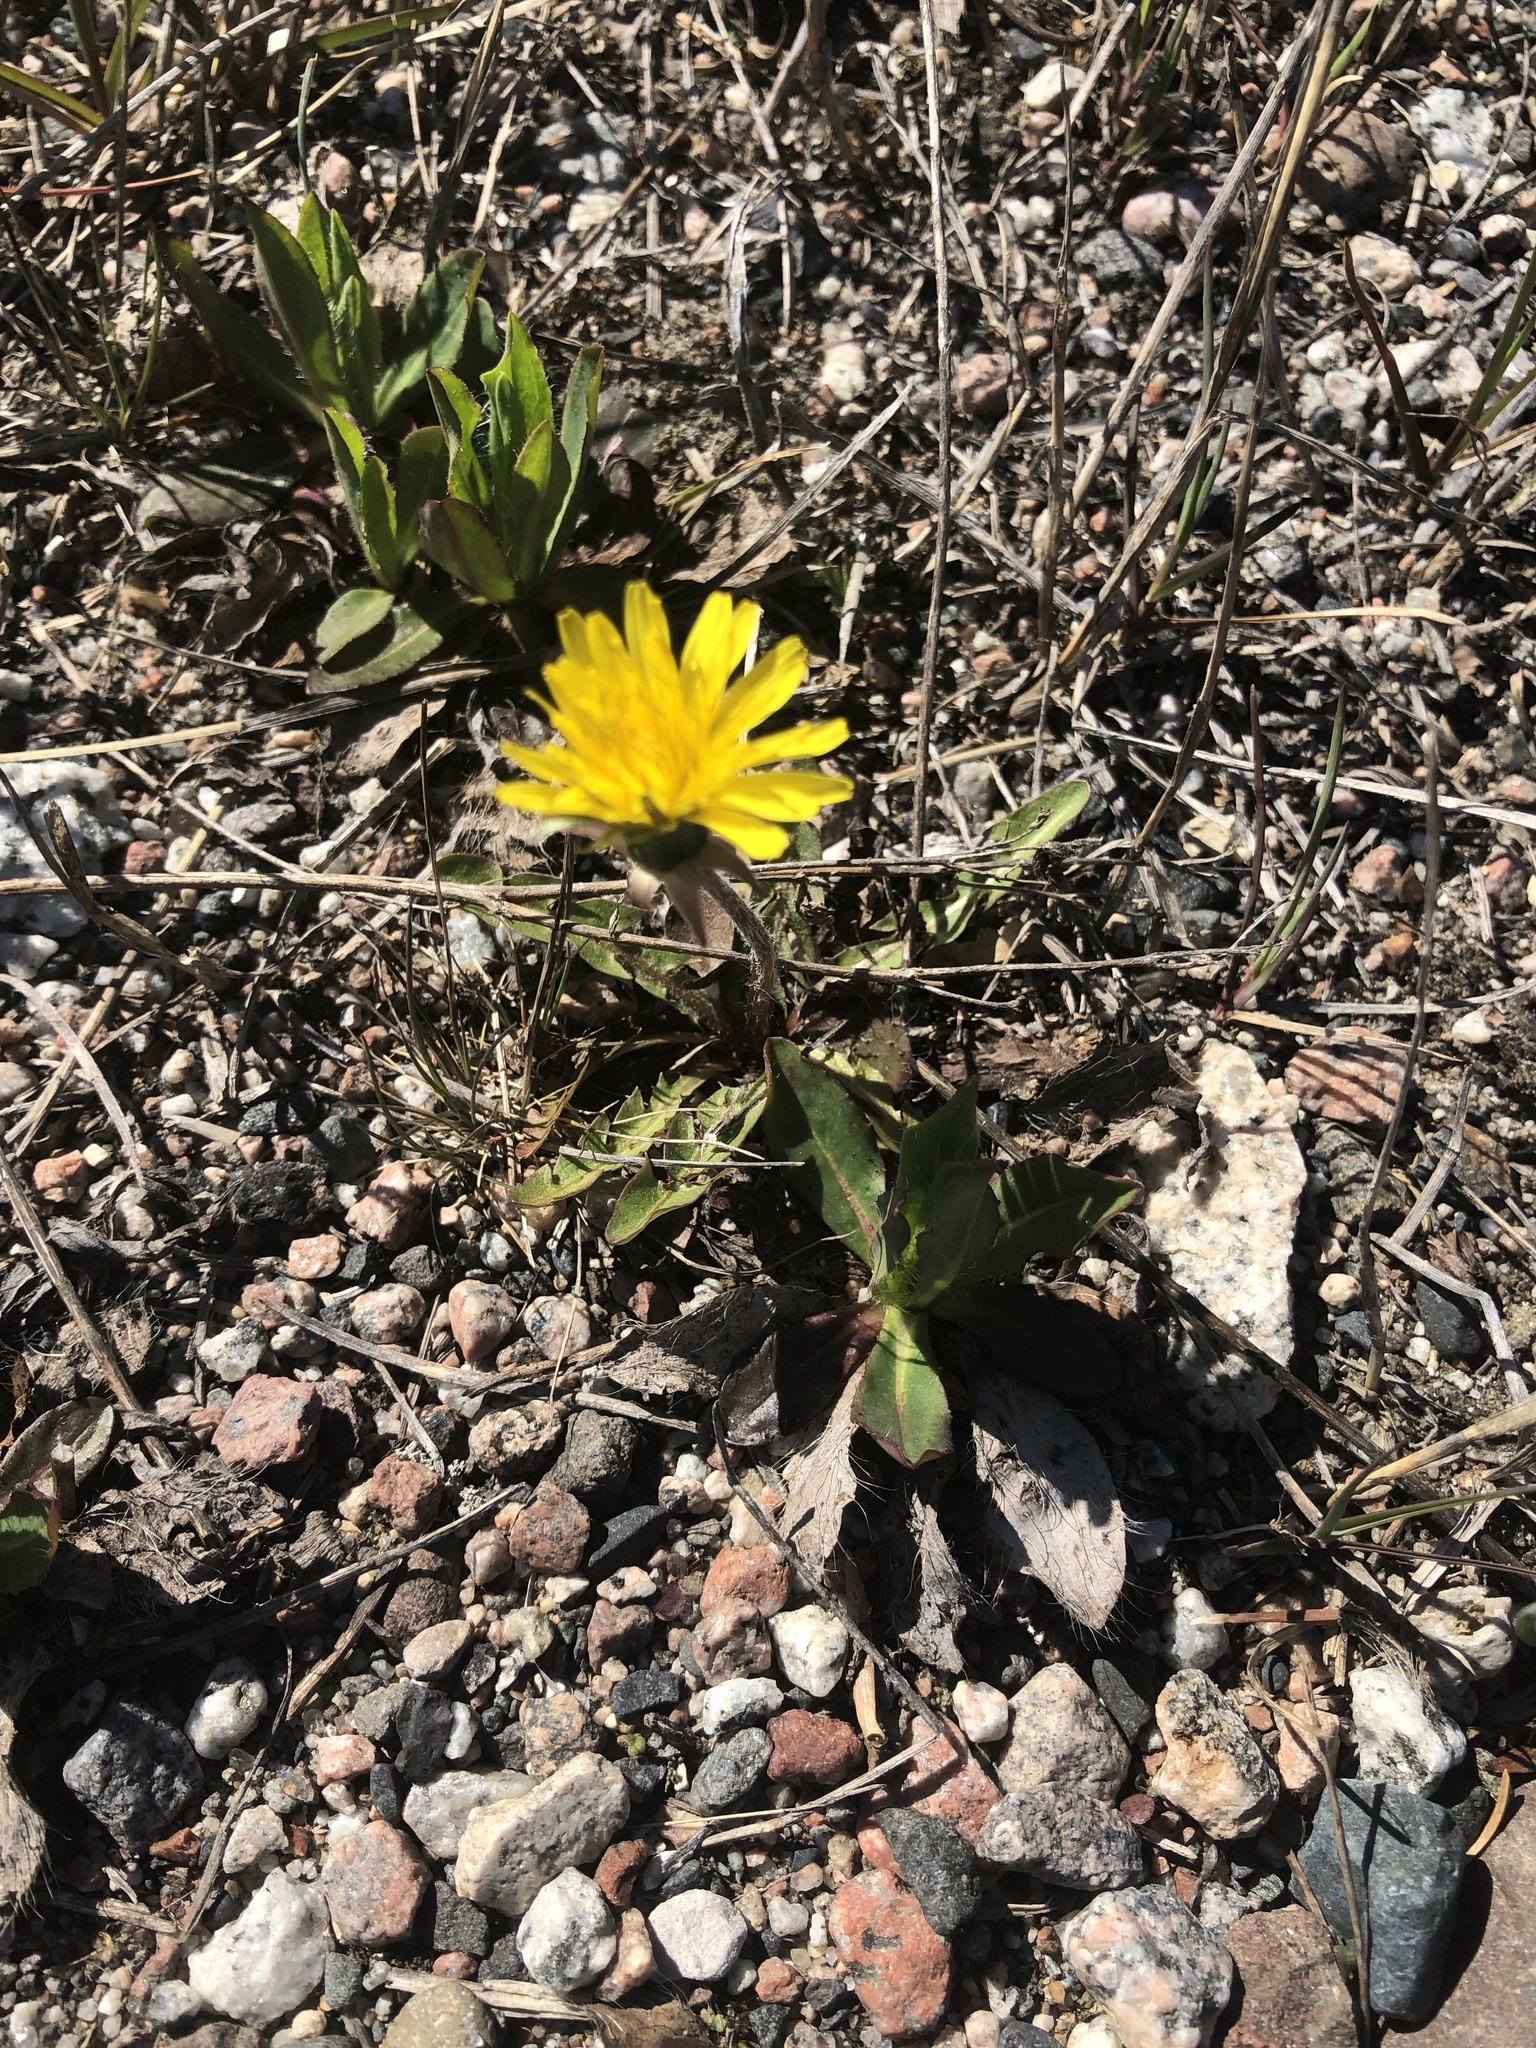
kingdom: Plantae
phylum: Tracheophyta
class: Magnoliopsida
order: Asterales
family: Asteraceae
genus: Taraxacum
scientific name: Taraxacum officinale
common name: Common dandelion
